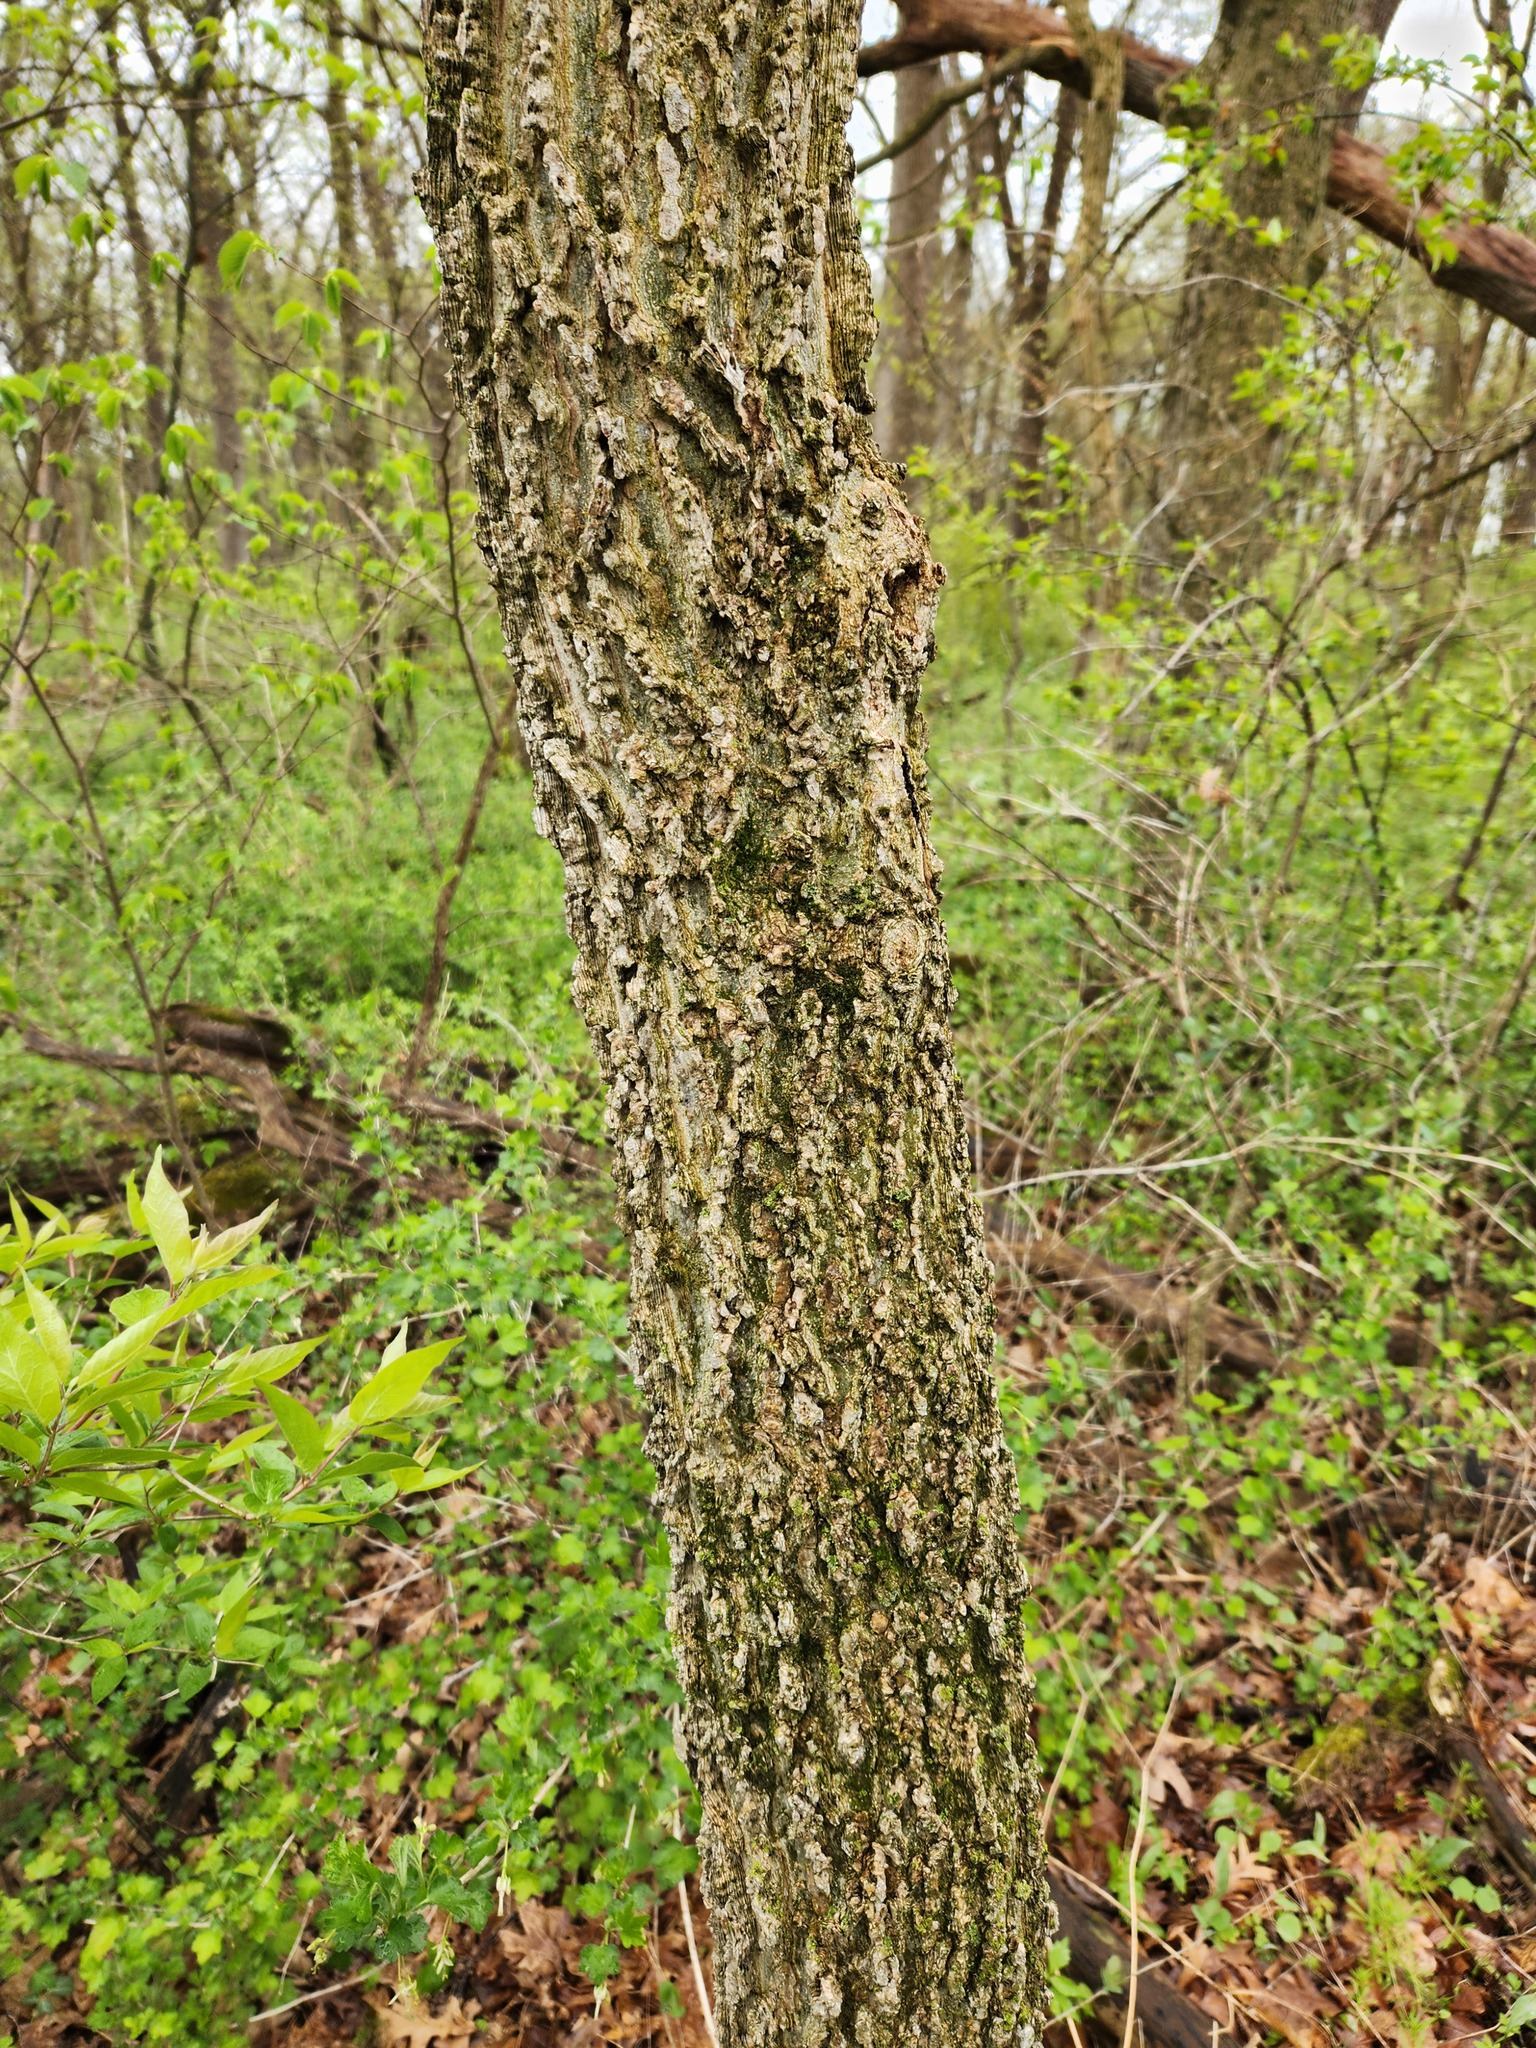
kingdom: Plantae
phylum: Tracheophyta
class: Magnoliopsida
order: Rosales
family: Cannabaceae
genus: Celtis
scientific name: Celtis occidentalis
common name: Common hackberry
